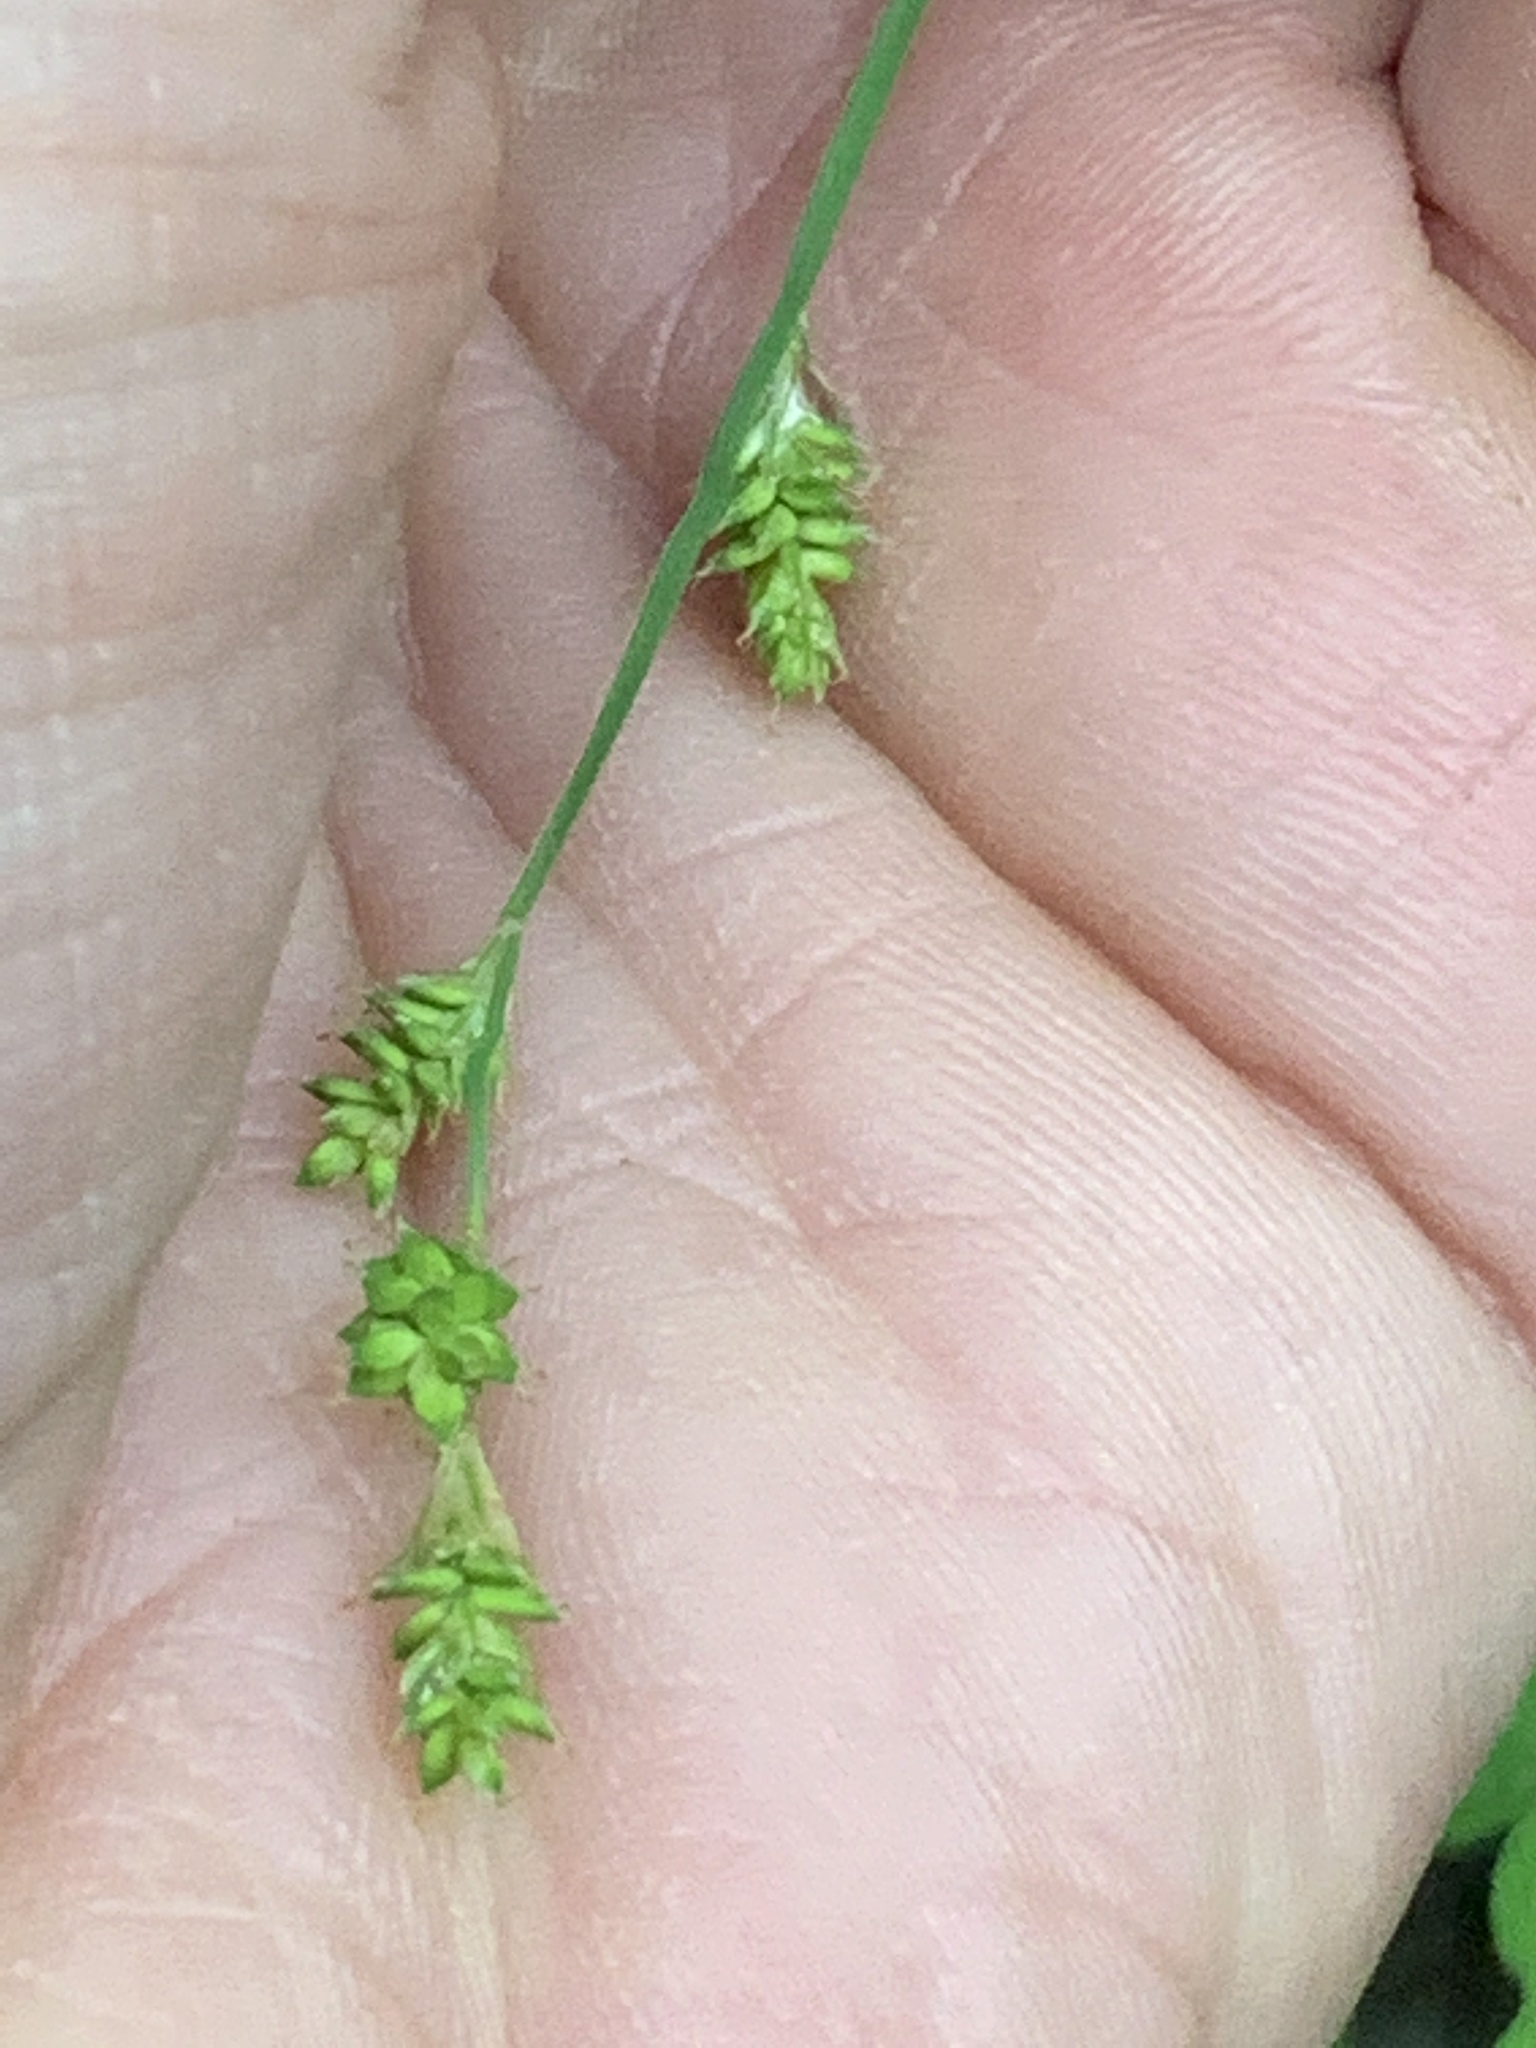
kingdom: Plantae
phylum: Tracheophyta
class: Liliopsida
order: Poales
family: Cyperaceae
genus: Carex
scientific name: Carex canescens
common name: White sedge
